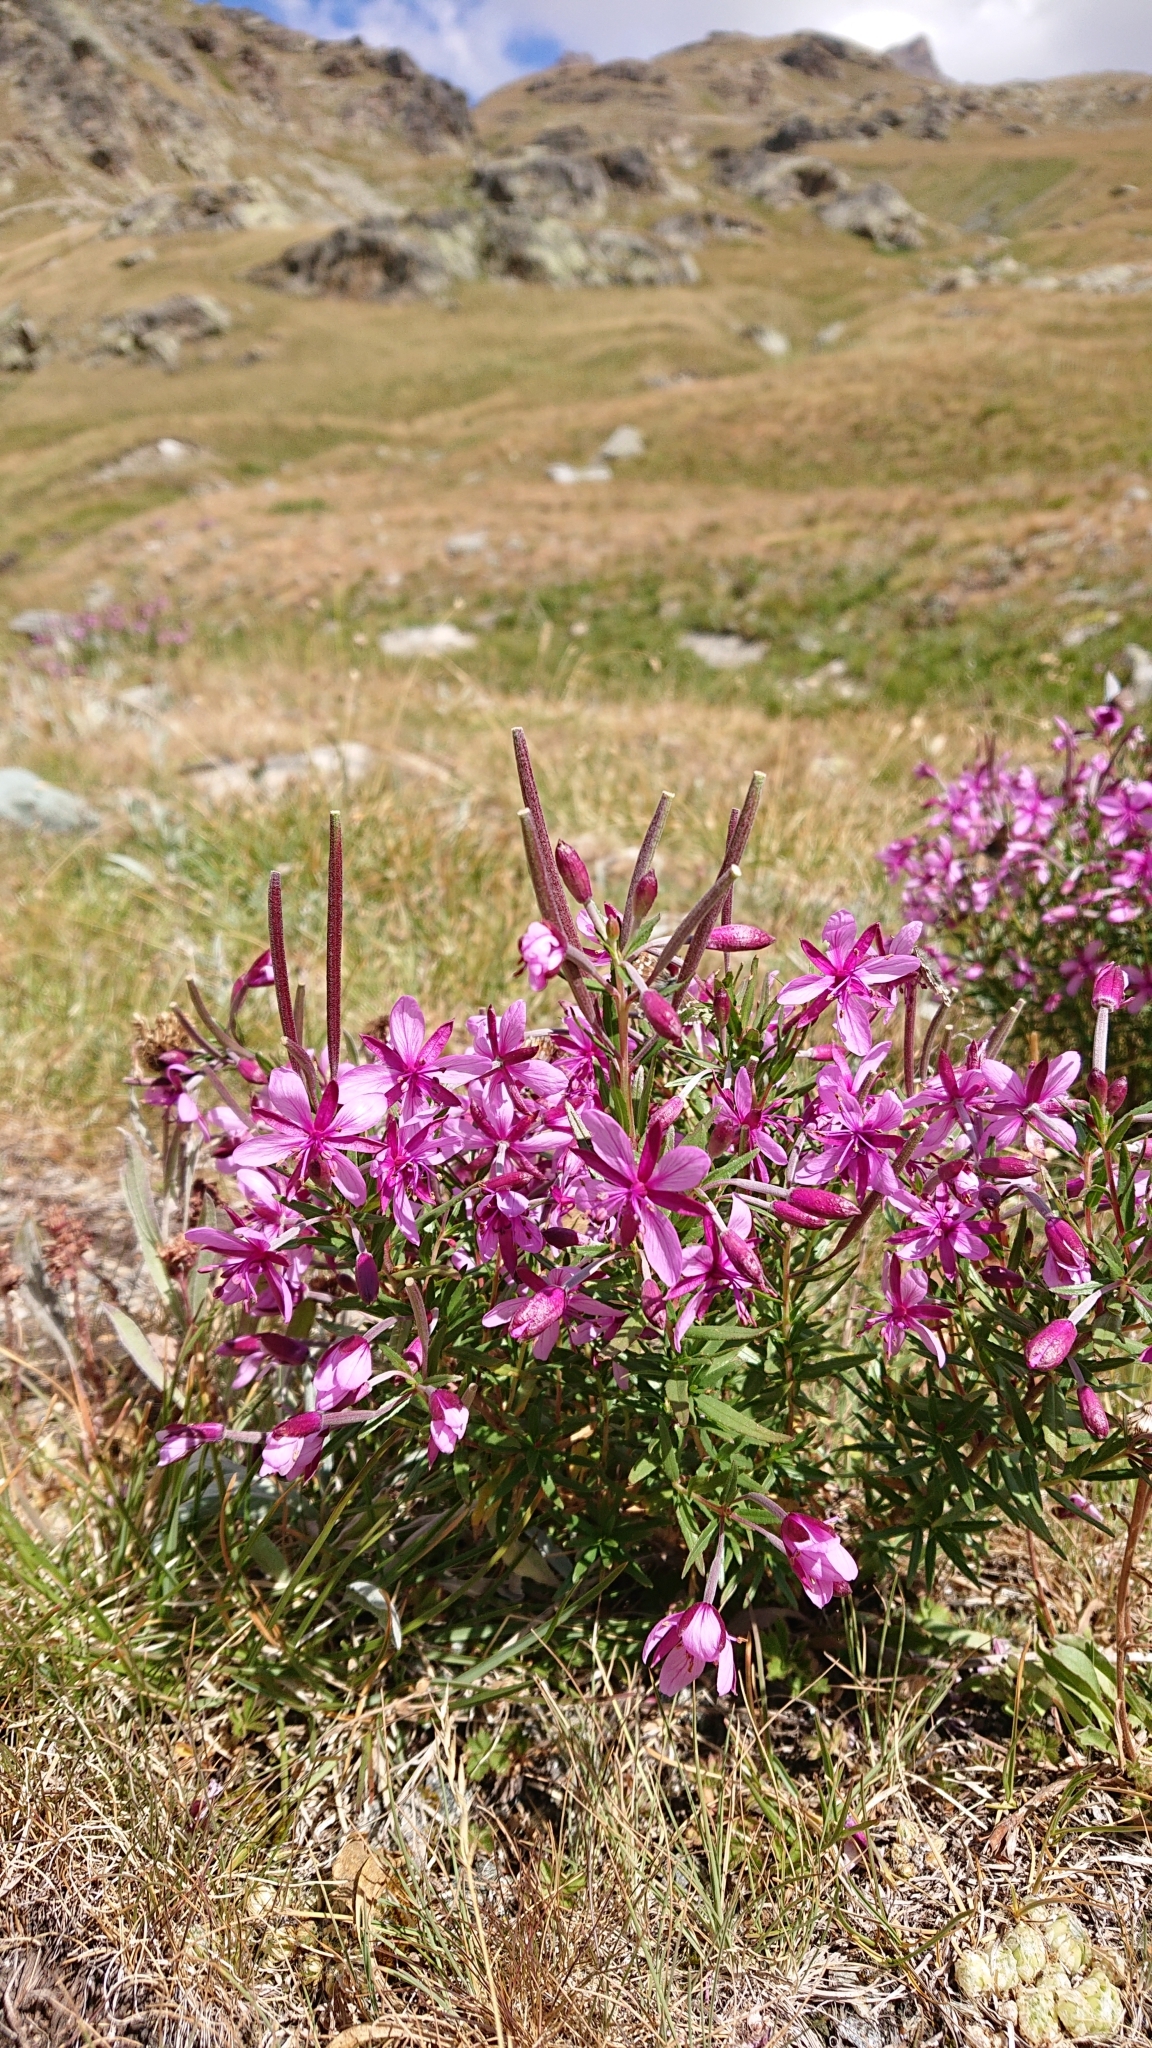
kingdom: Plantae
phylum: Tracheophyta
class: Magnoliopsida
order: Myrtales
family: Onagraceae
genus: Chamaenerion
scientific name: Chamaenerion fleischeri
